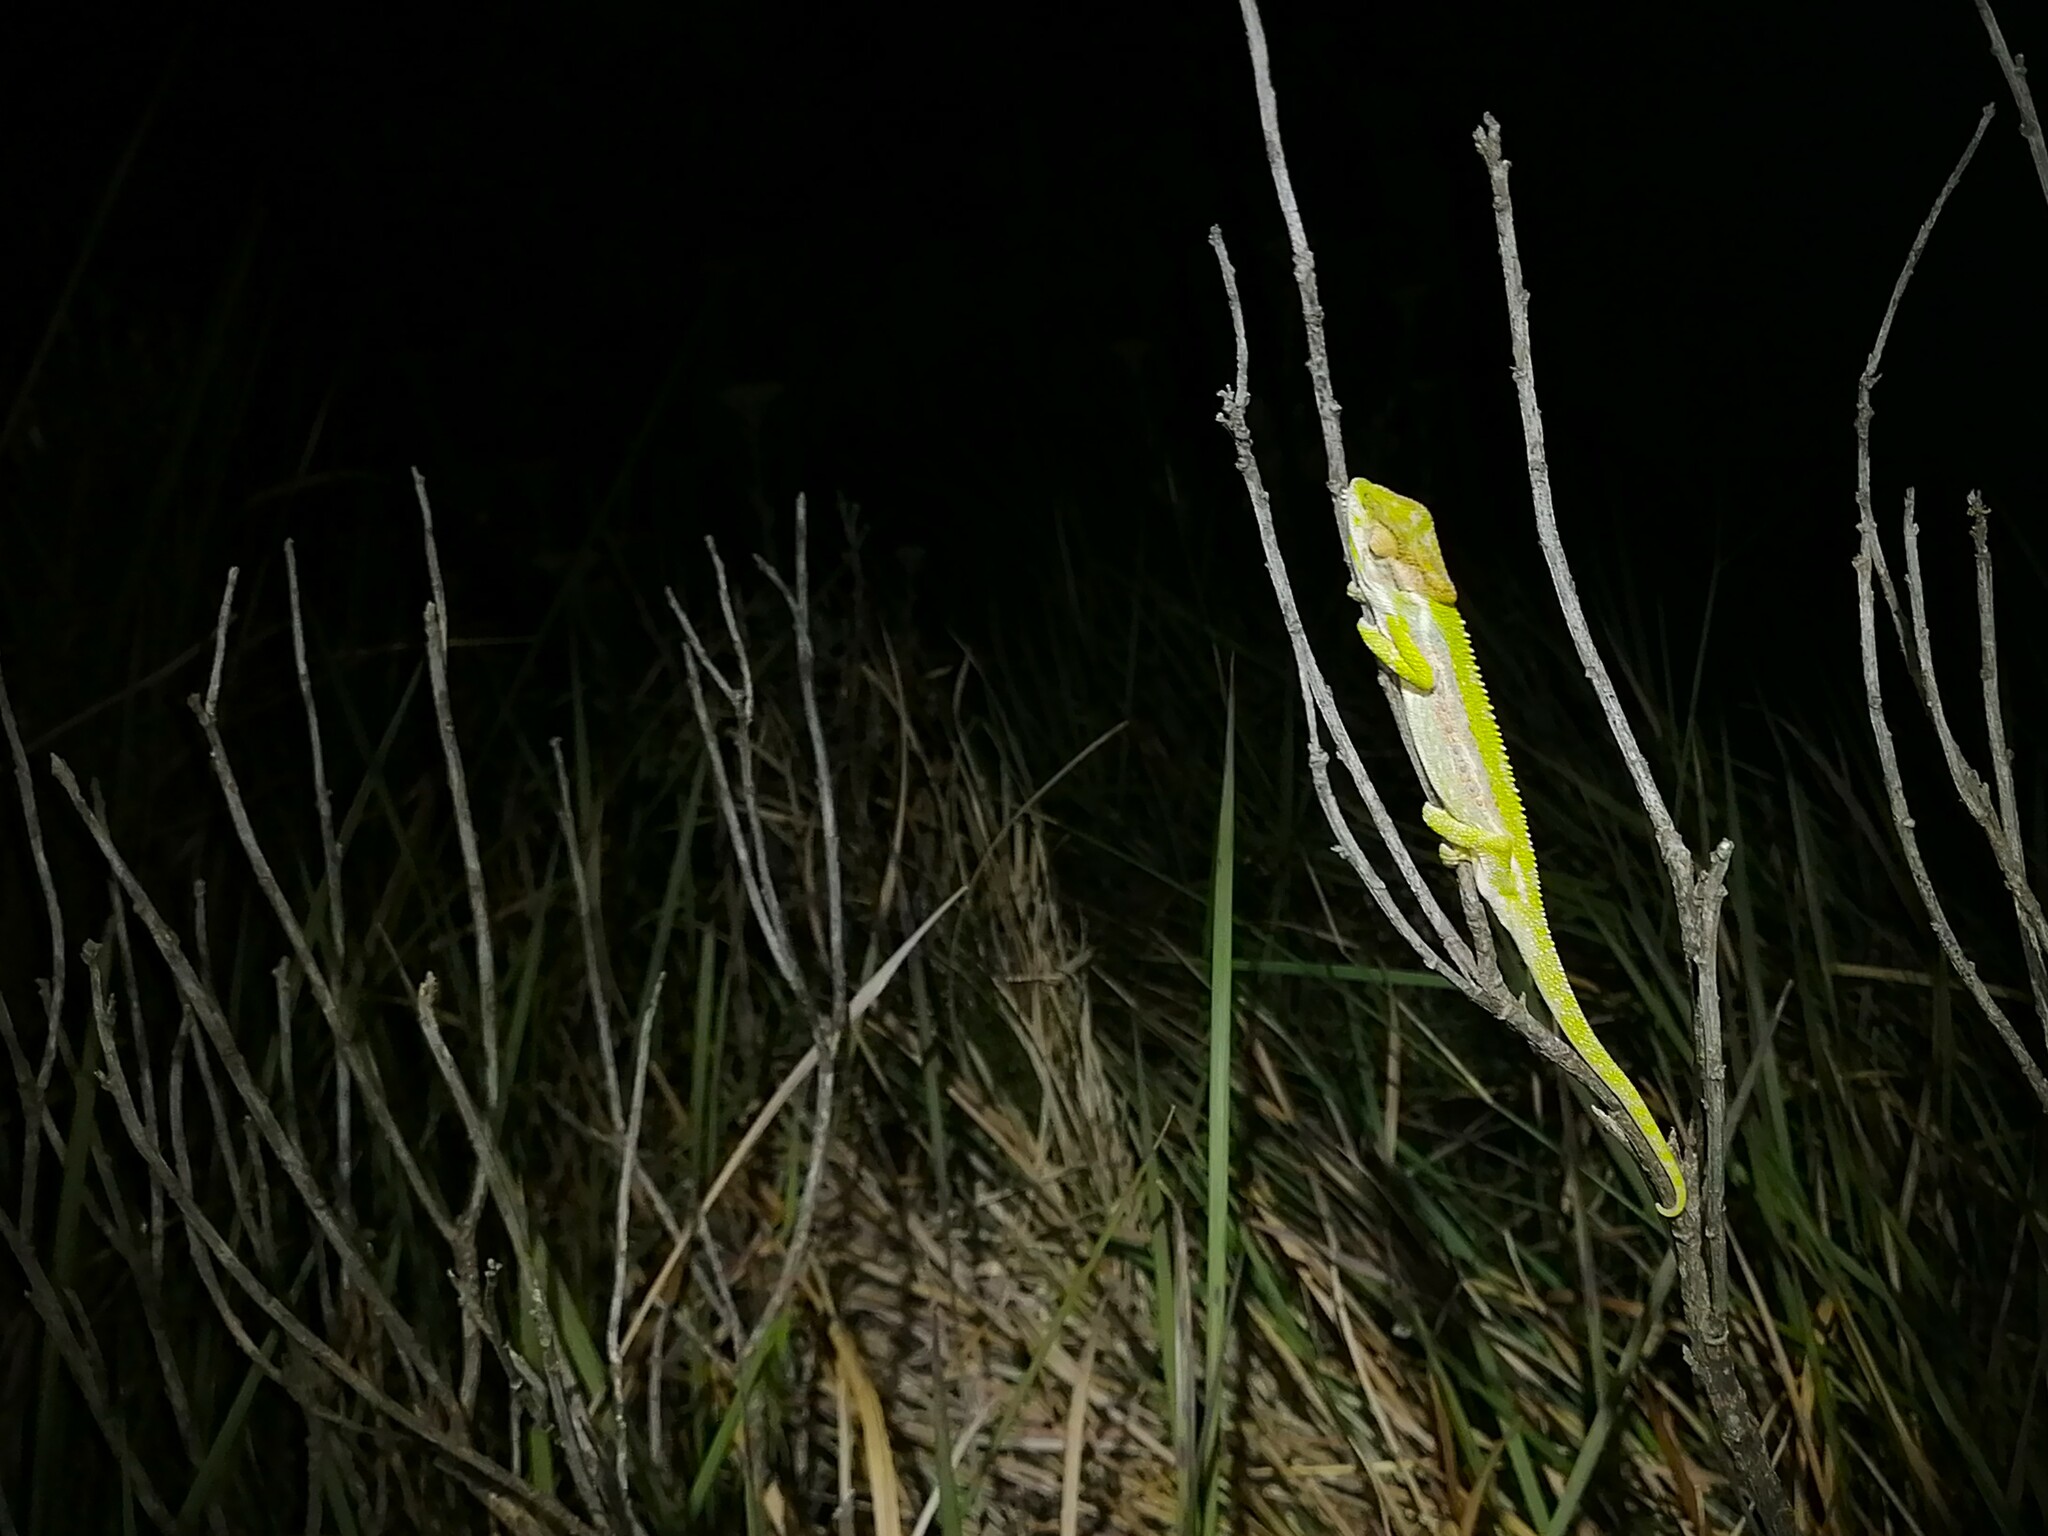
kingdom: Animalia
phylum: Chordata
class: Squamata
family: Chamaeleonidae
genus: Bradypodion
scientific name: Bradypodion pumilum
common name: Cape dwarf chameleon
